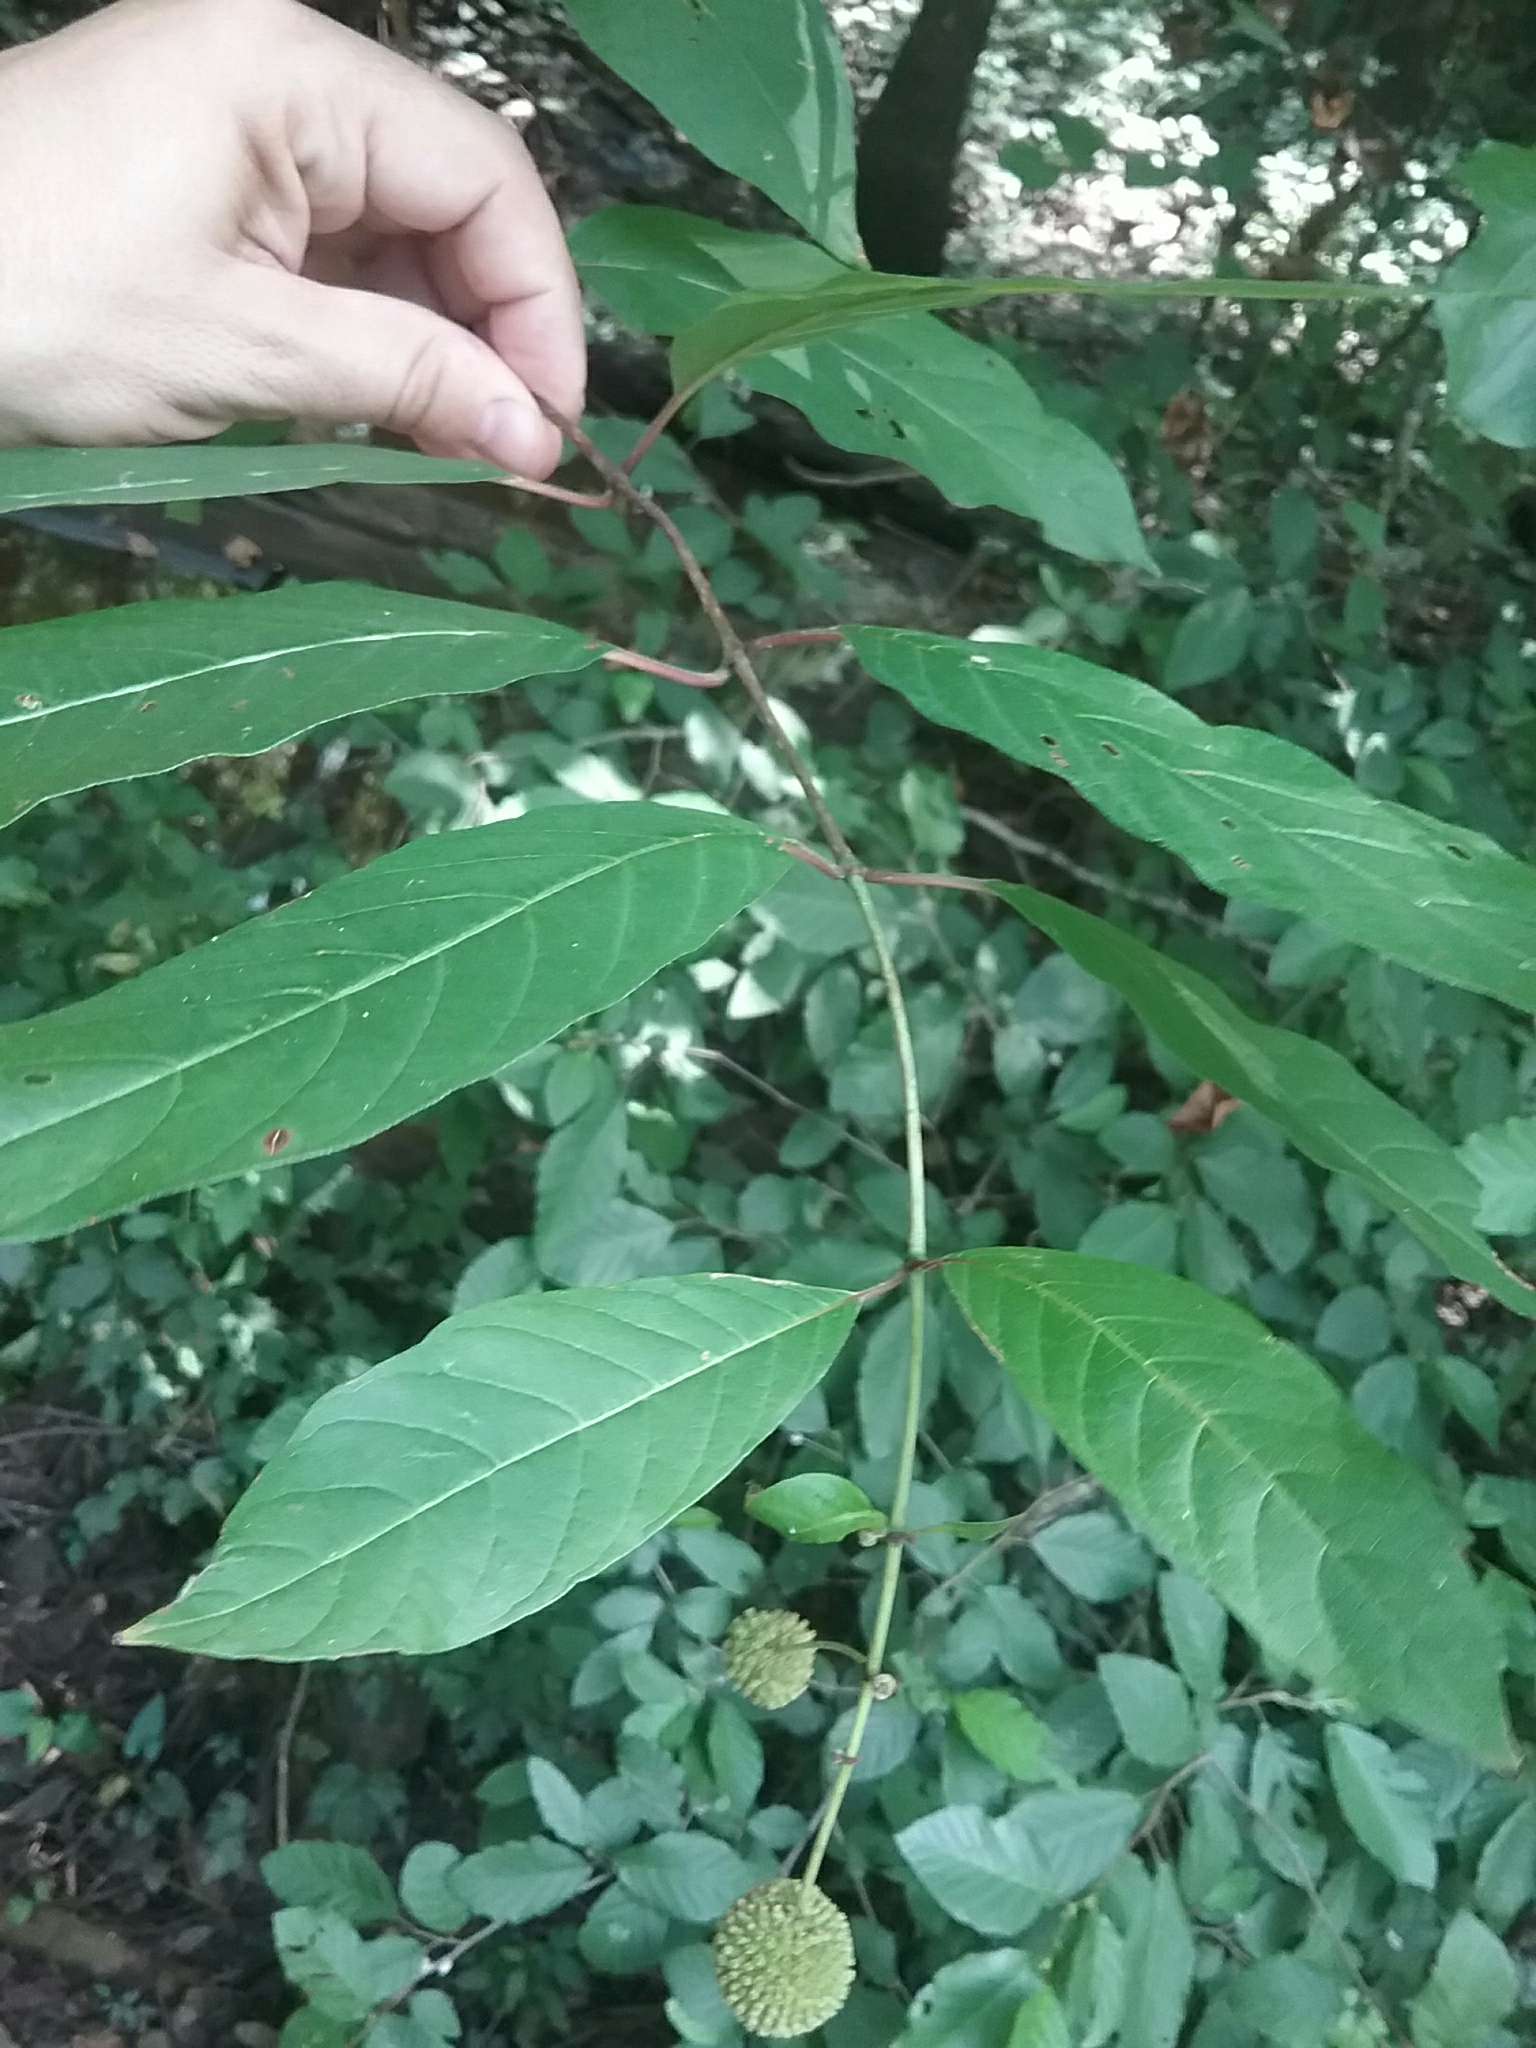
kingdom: Plantae
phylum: Tracheophyta
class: Magnoliopsida
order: Gentianales
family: Rubiaceae
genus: Cephalanthus
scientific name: Cephalanthus occidentalis
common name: Button-willow
